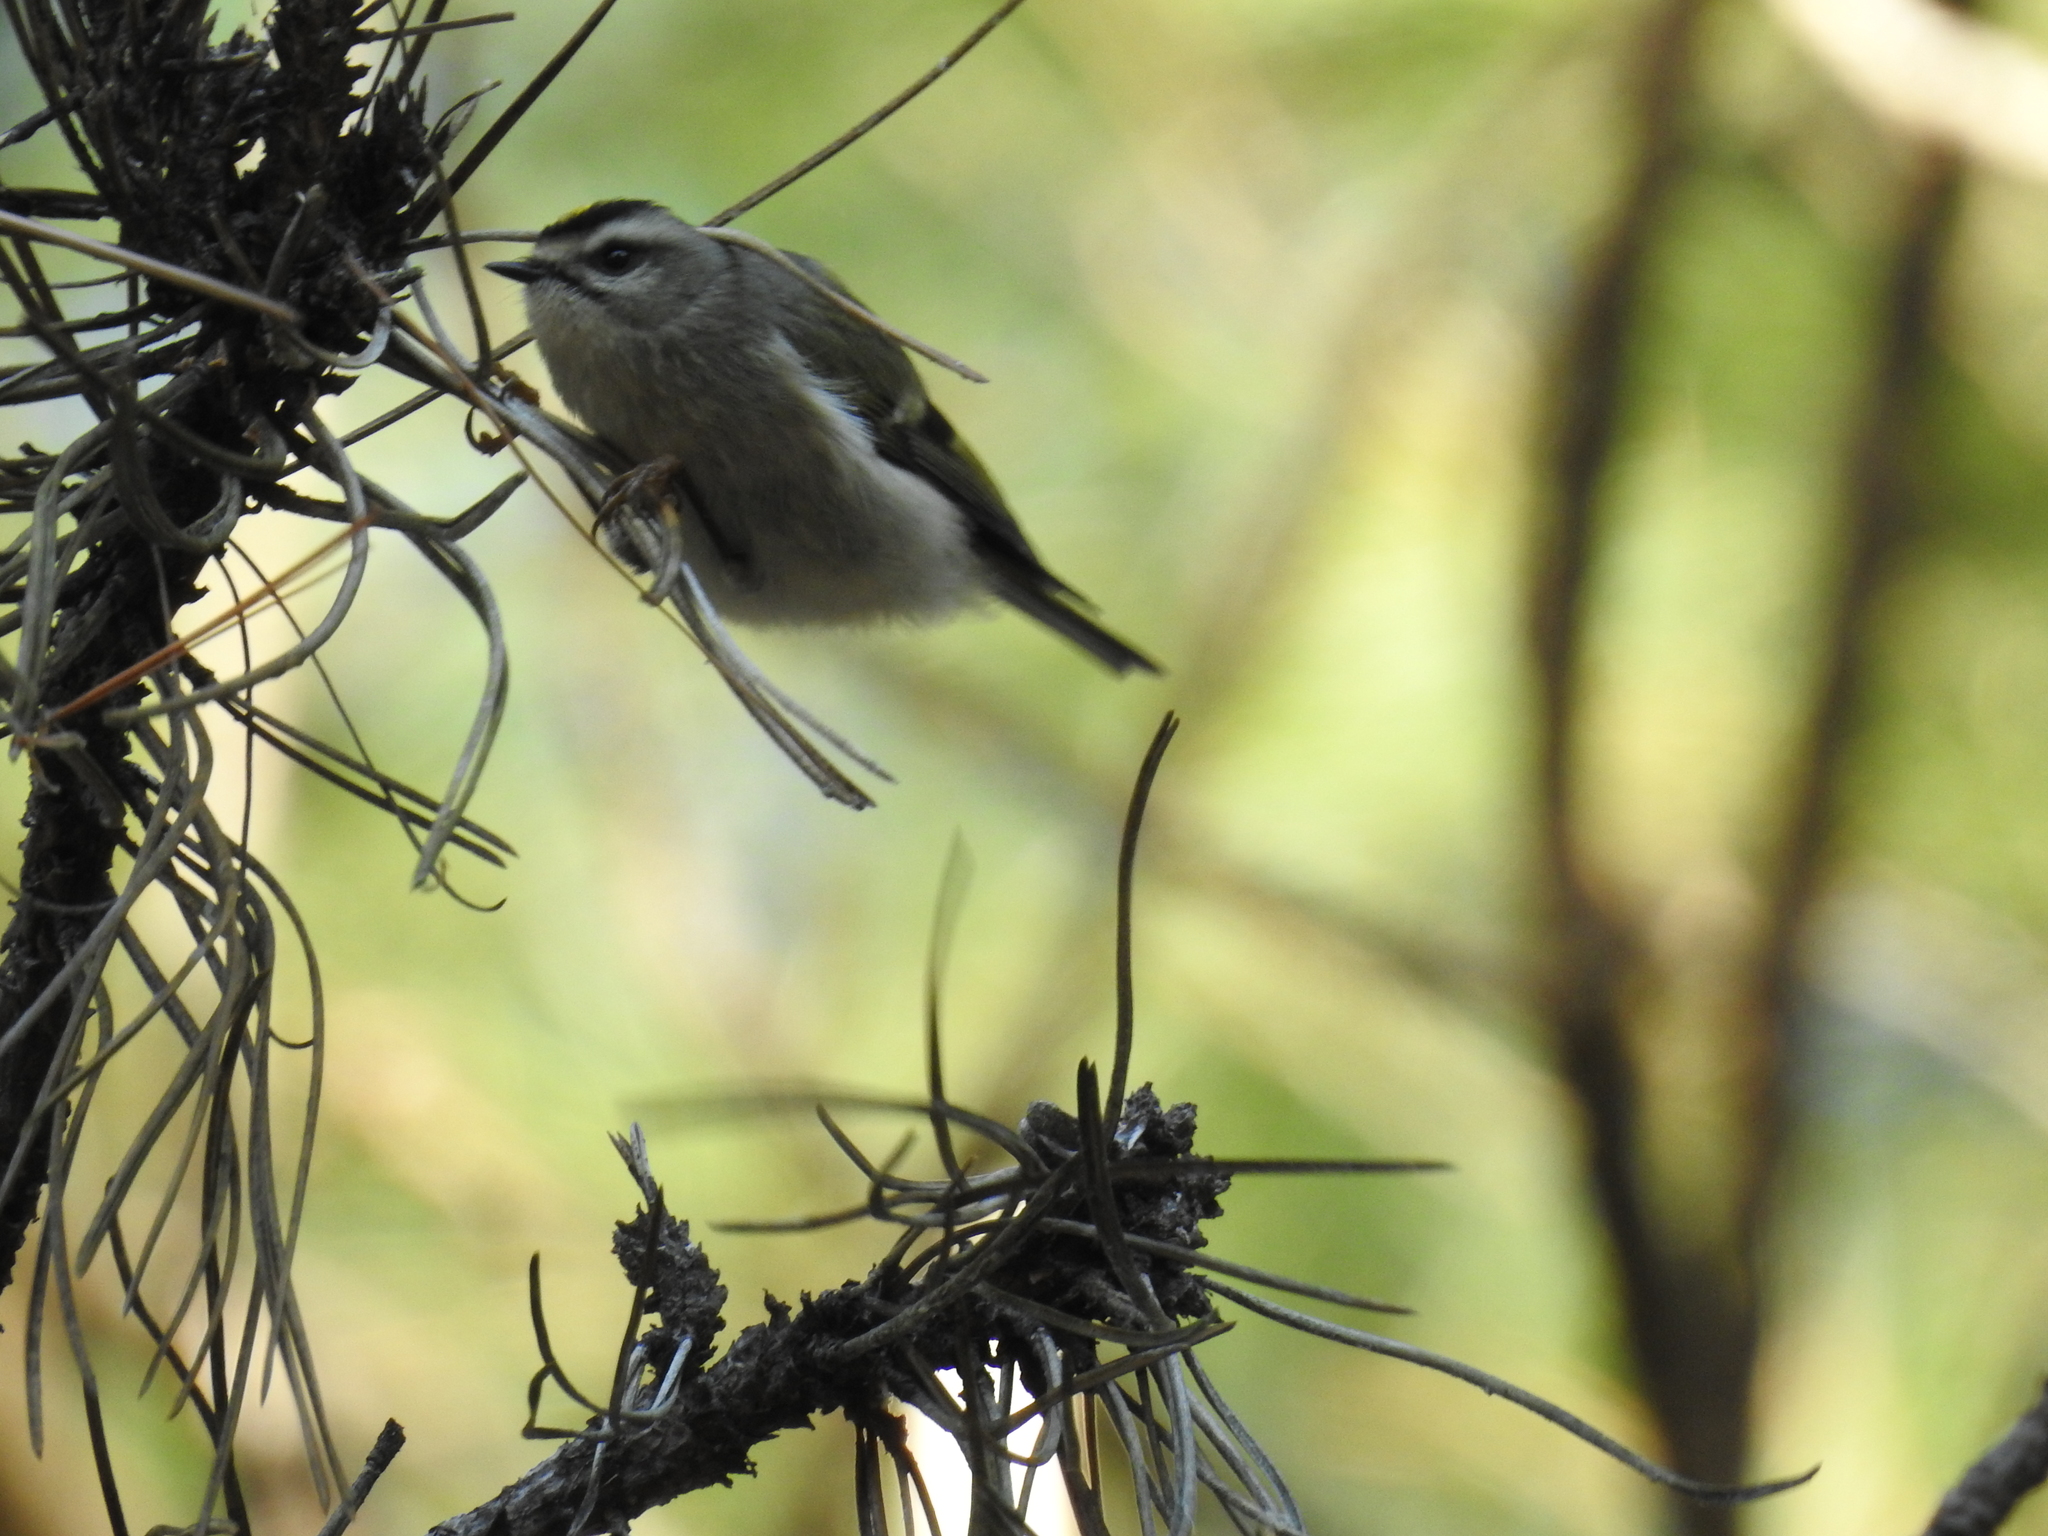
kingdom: Animalia
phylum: Chordata
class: Aves
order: Passeriformes
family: Regulidae
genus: Regulus
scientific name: Regulus satrapa
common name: Golden-crowned kinglet
